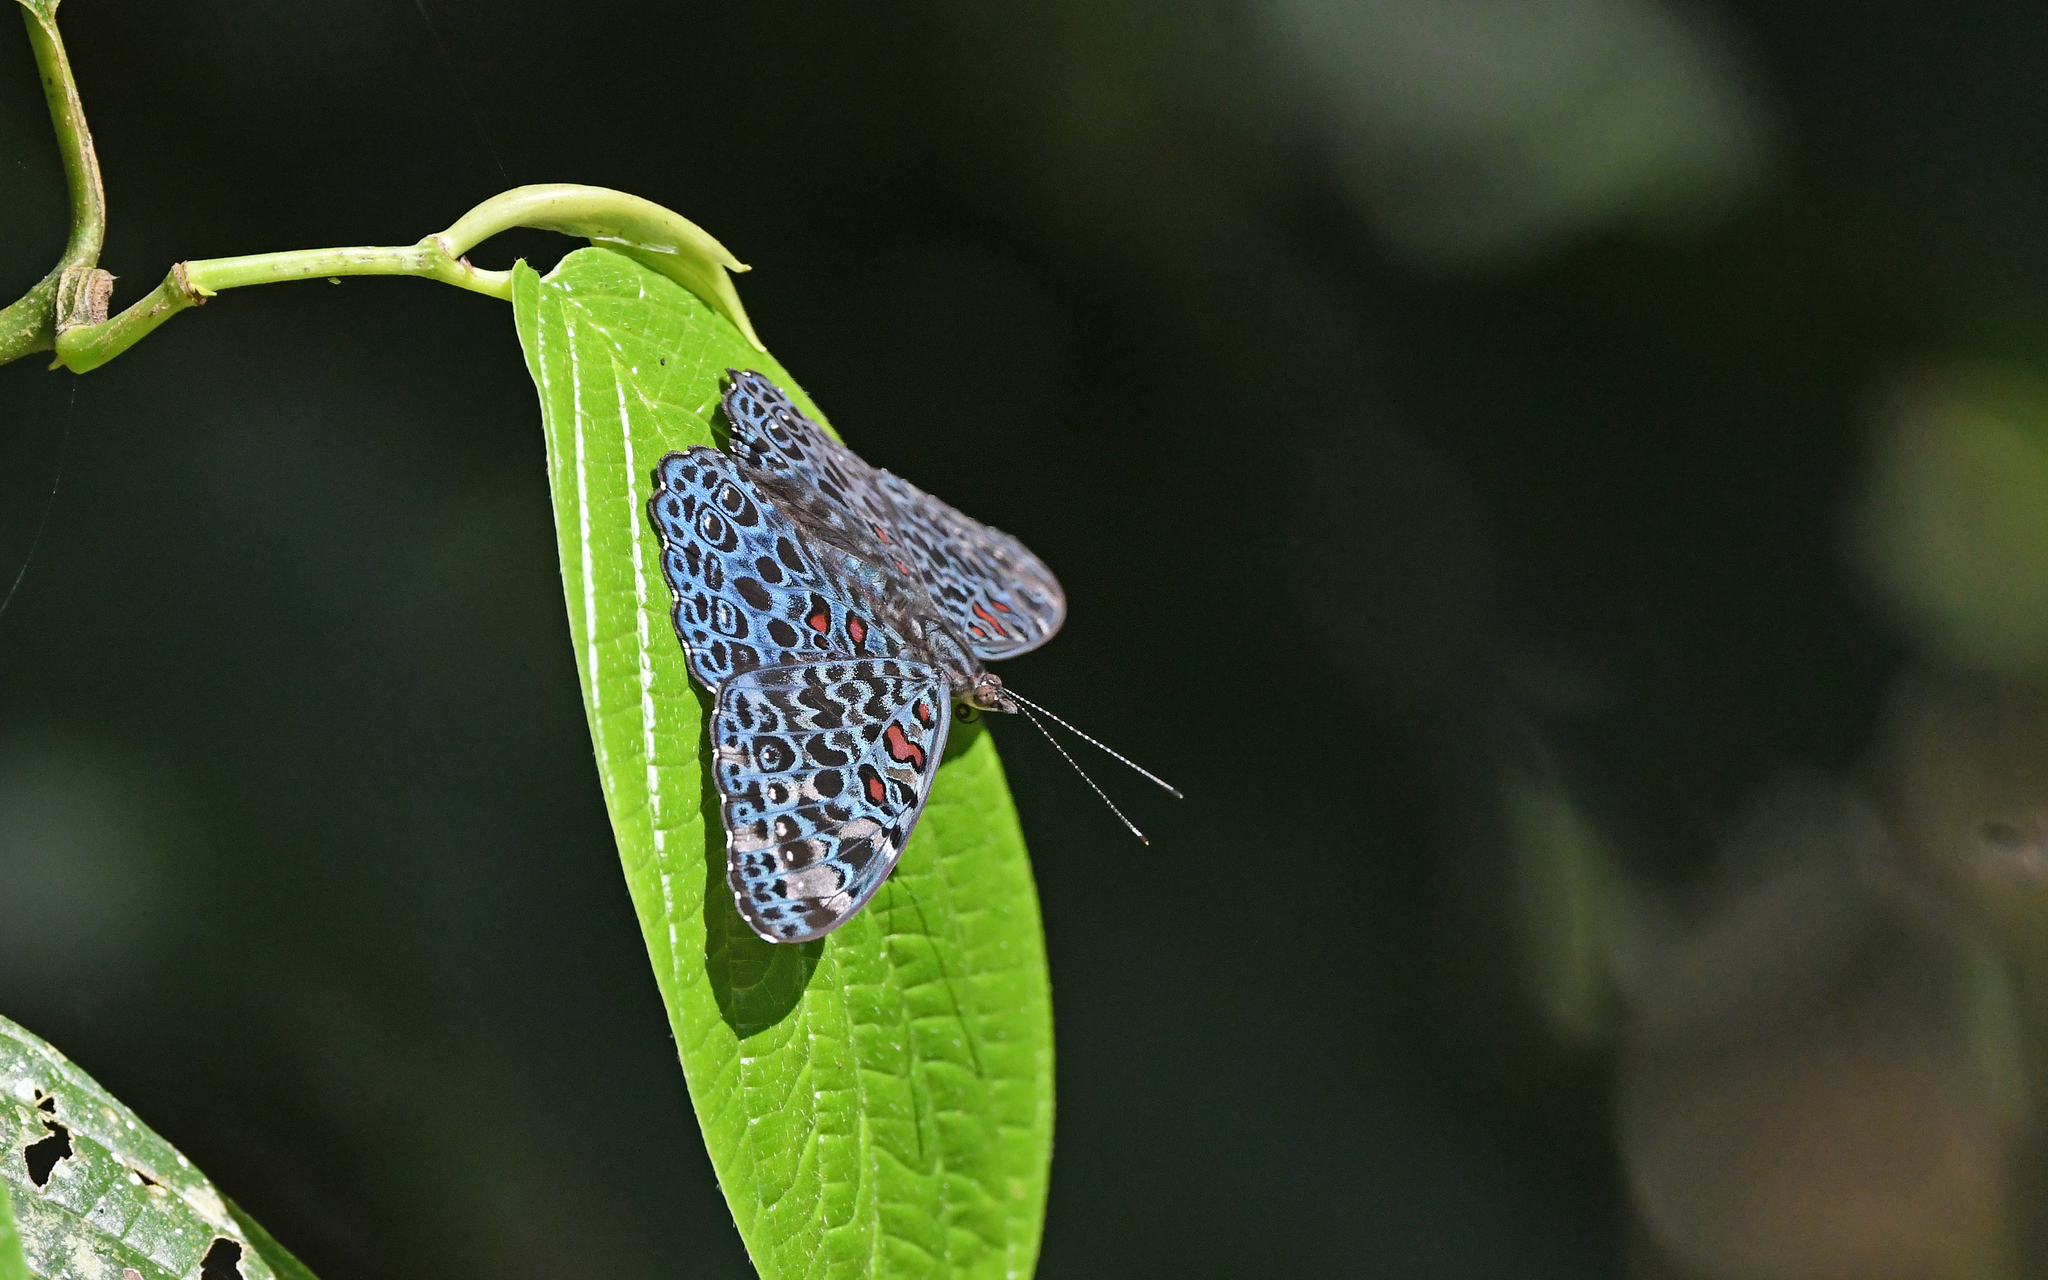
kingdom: Animalia
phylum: Arthropoda
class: Insecta
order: Lepidoptera
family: Nymphalidae
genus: Hamadryas
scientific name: Hamadryas chloe
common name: Amazon cracker
